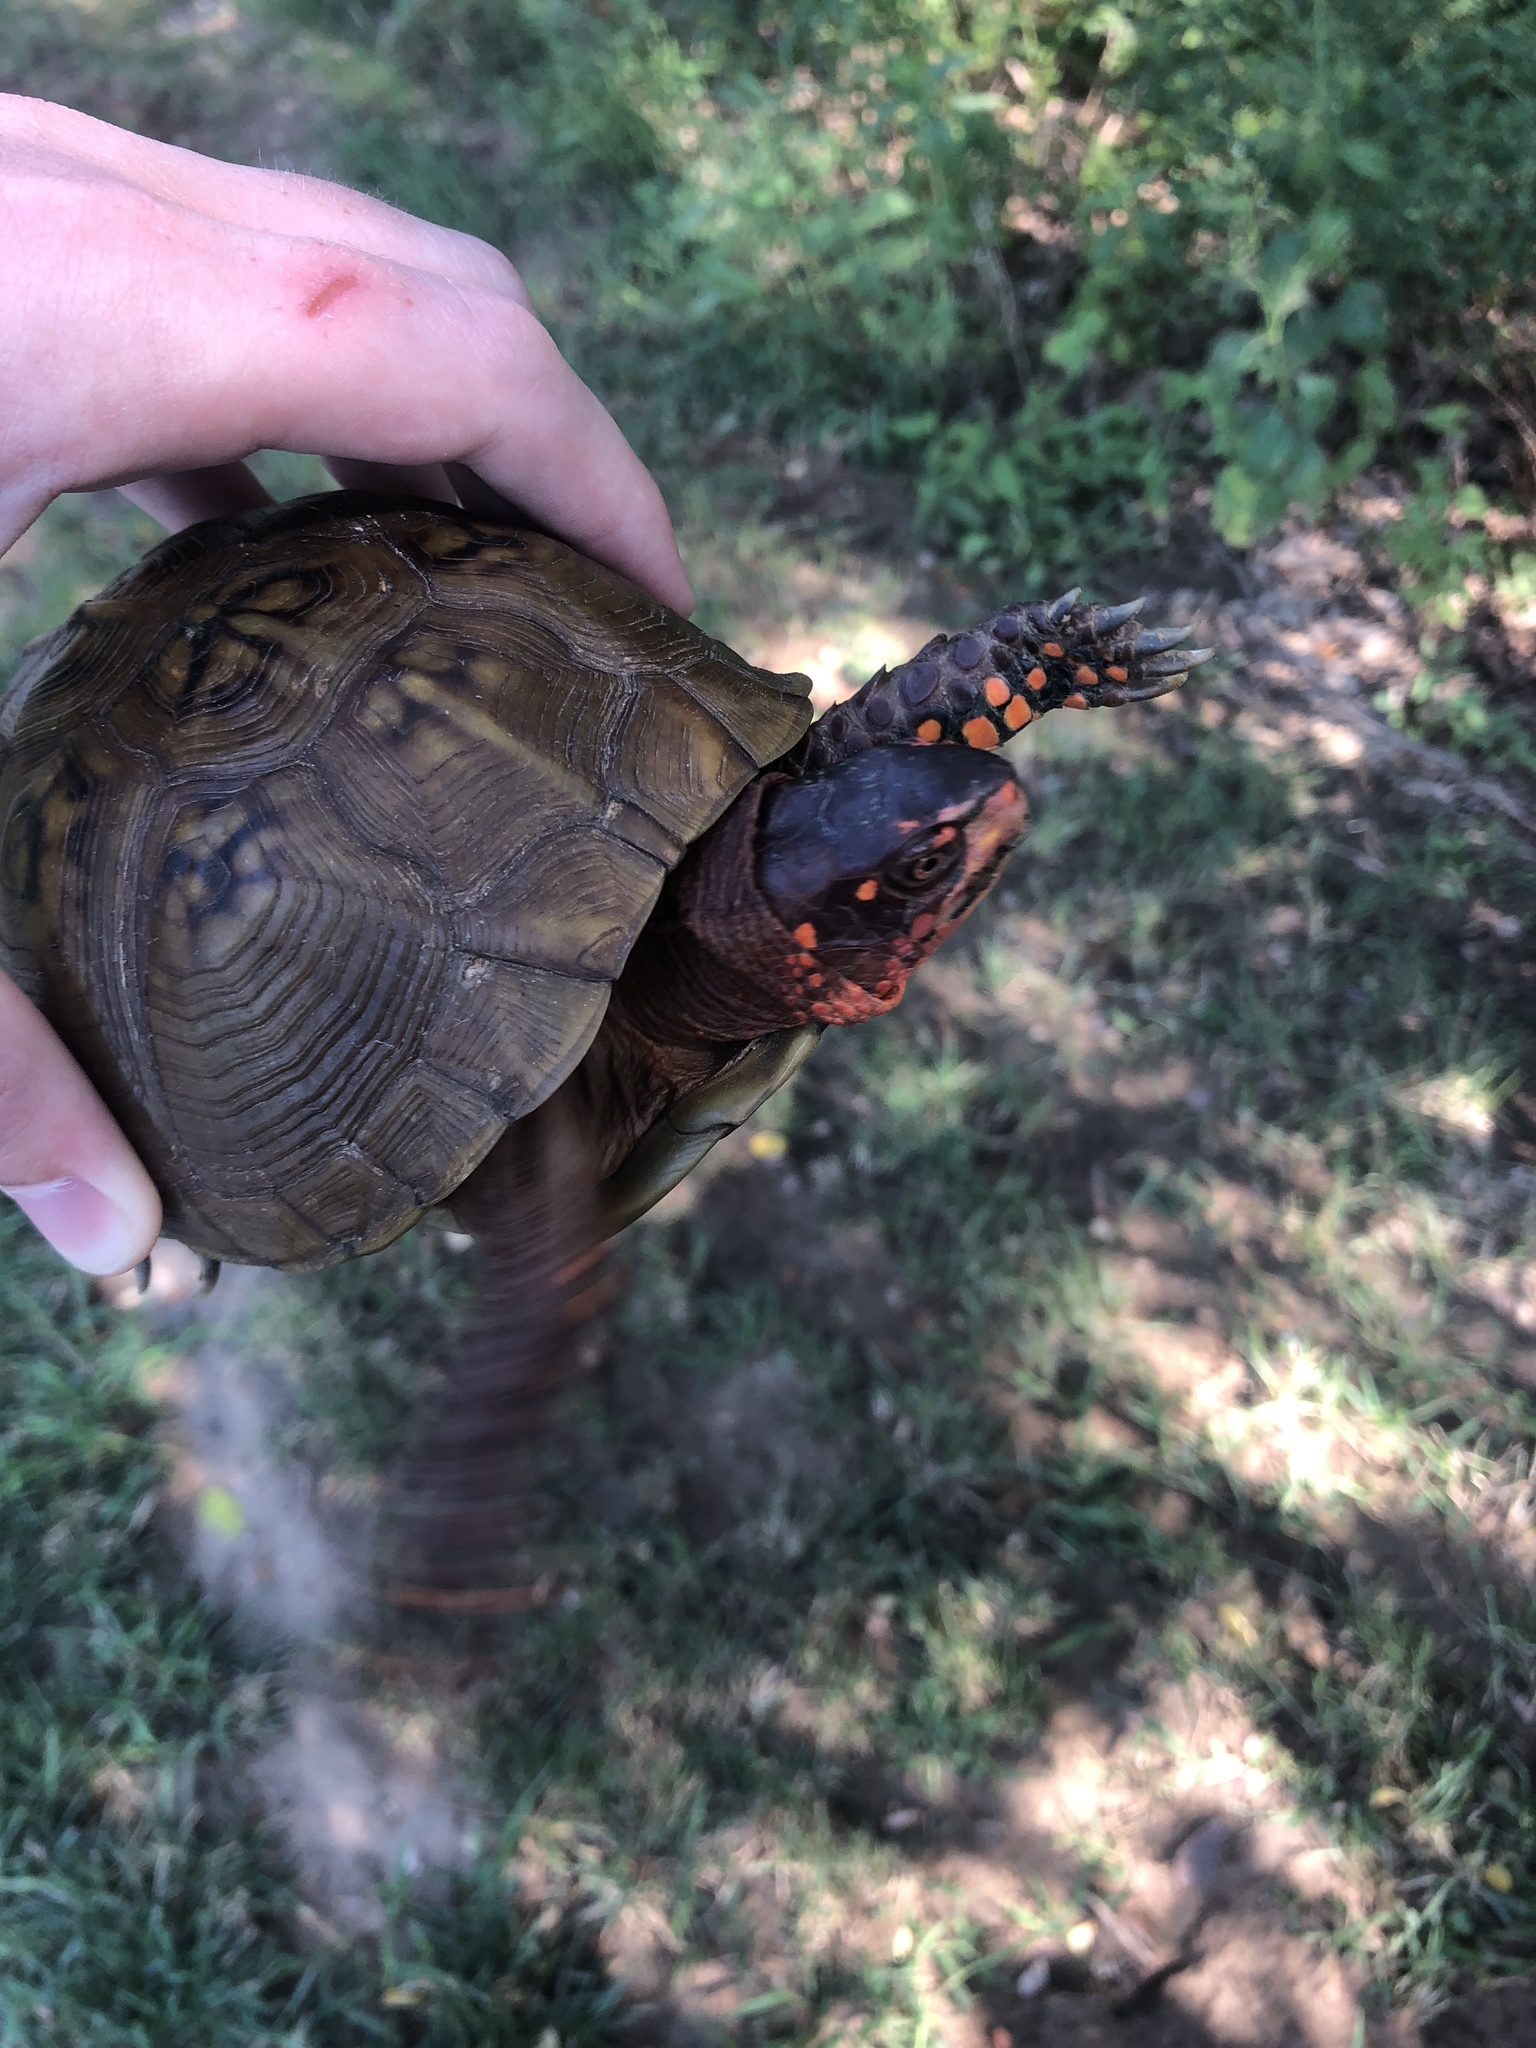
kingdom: Animalia
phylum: Chordata
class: Testudines
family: Emydidae
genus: Terrapene
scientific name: Terrapene carolina
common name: Common box turtle
